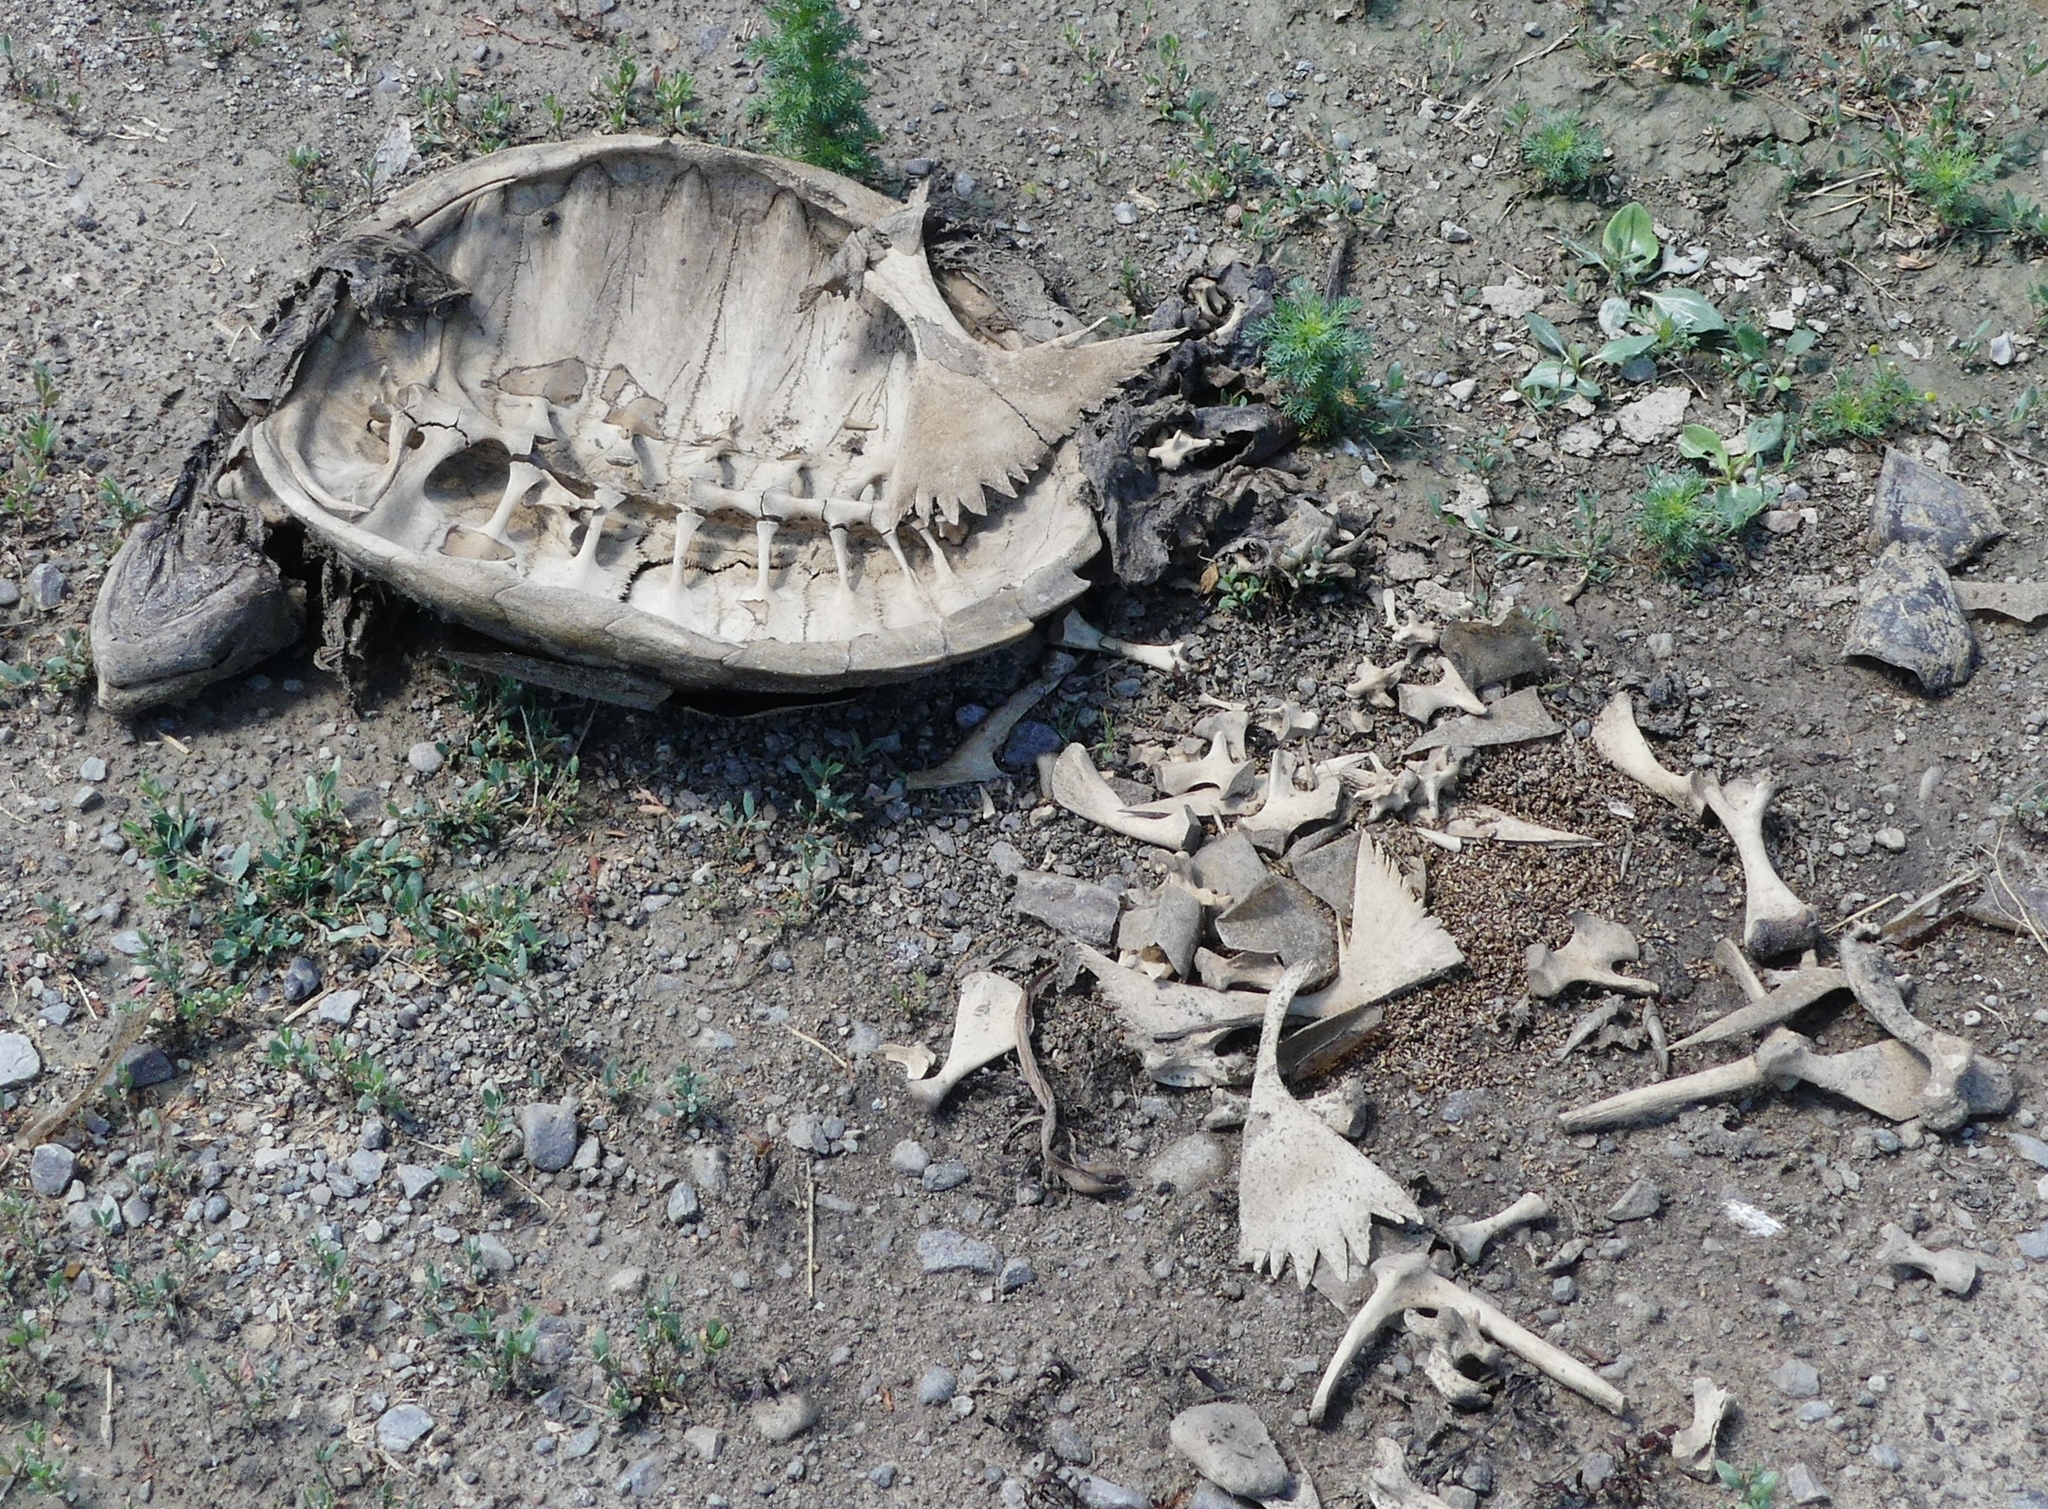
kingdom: Animalia
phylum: Chordata
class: Testudines
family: Chelydridae
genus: Chelydra
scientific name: Chelydra serpentina
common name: Common snapping turtle
